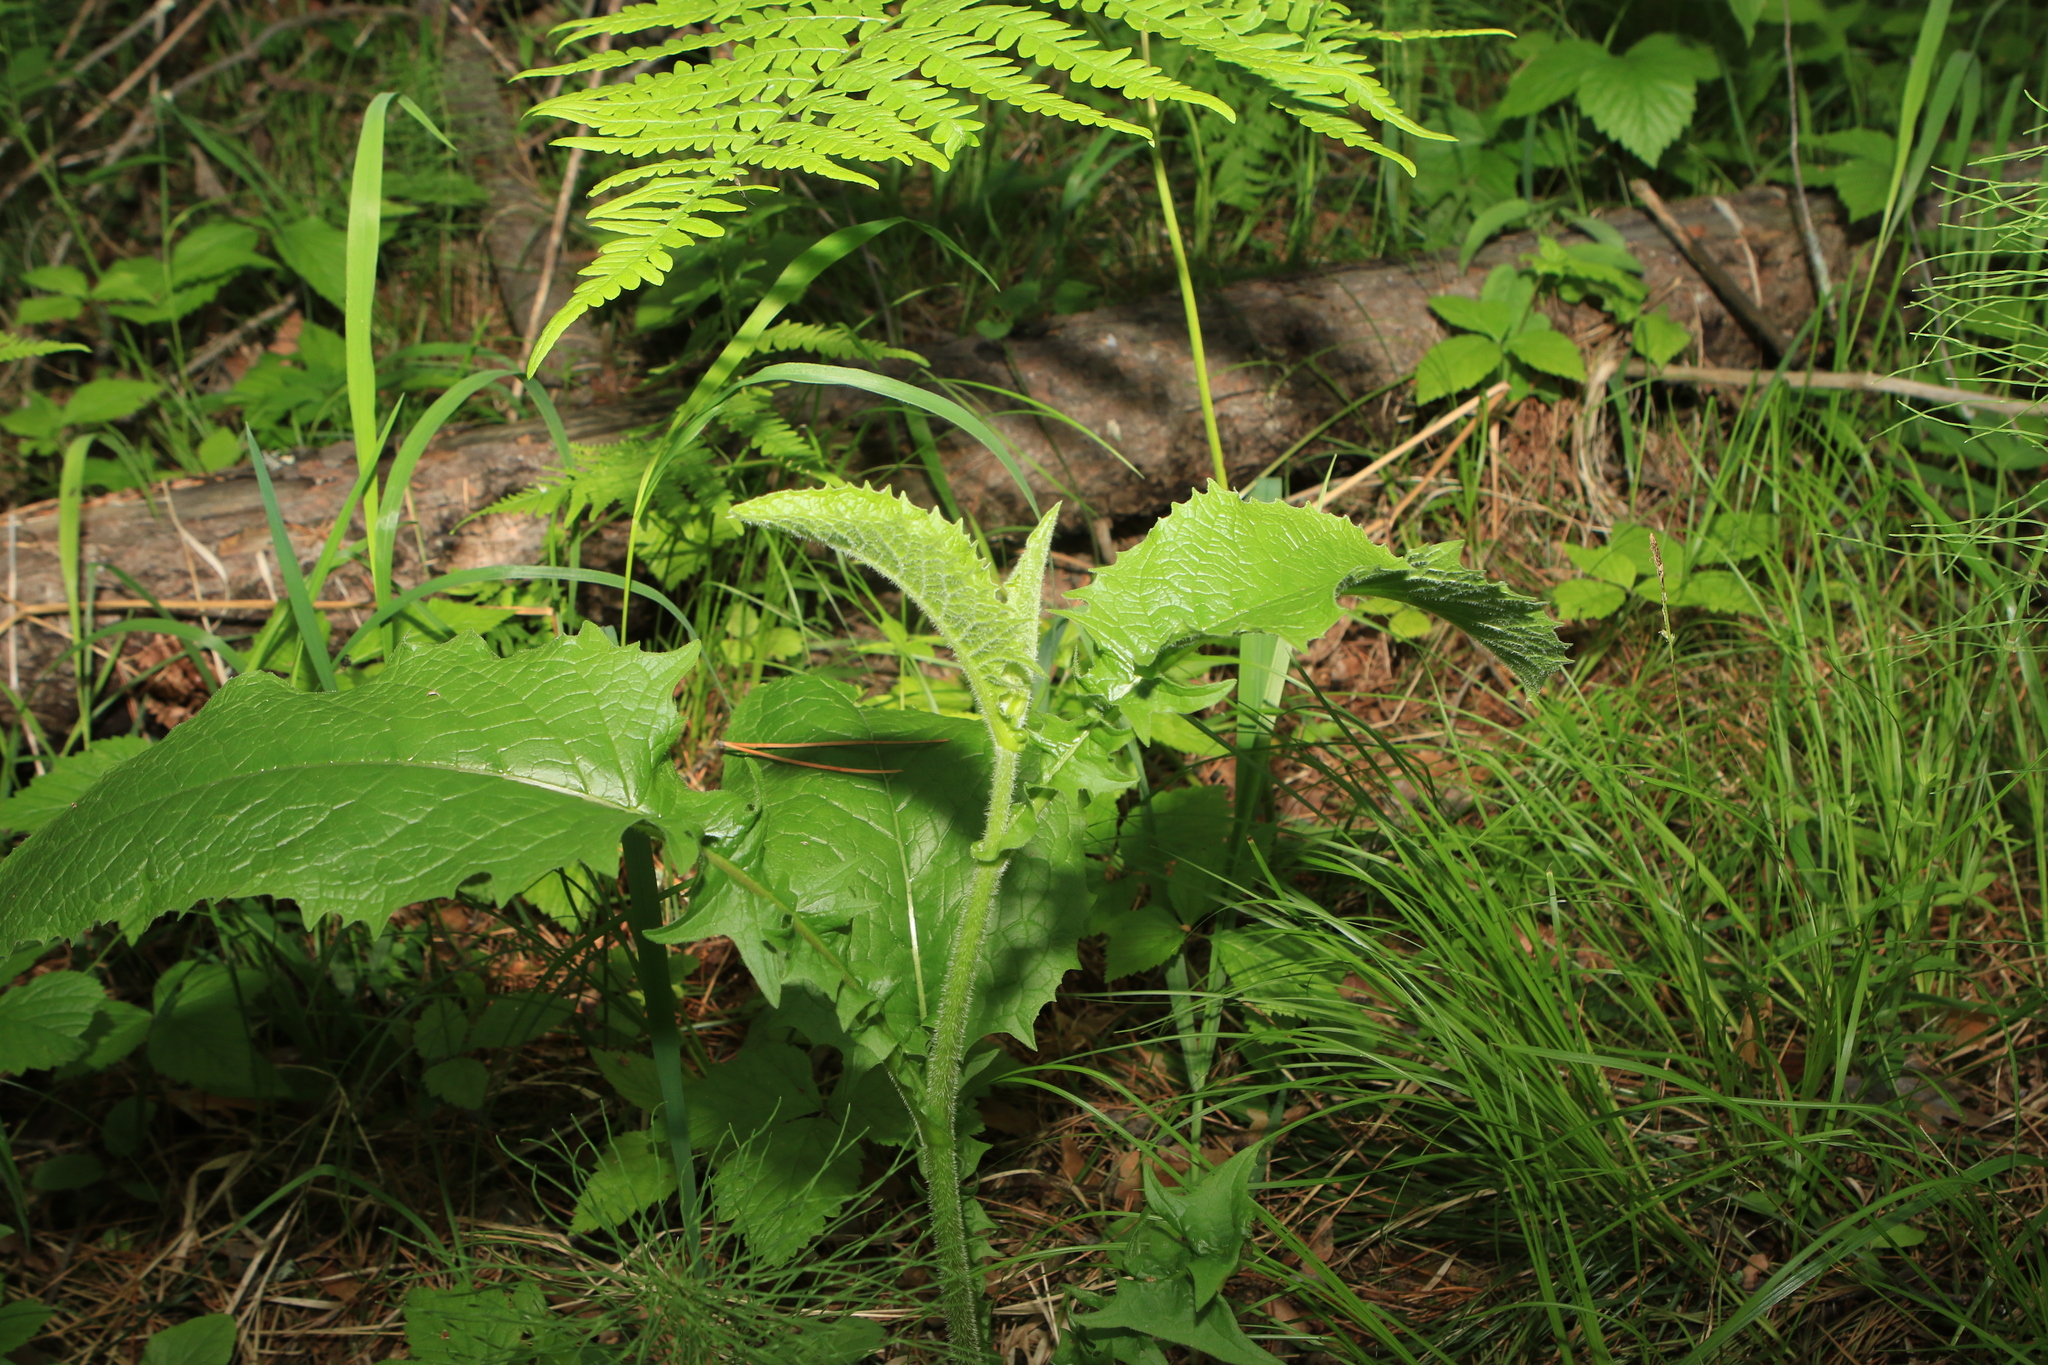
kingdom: Plantae
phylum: Tracheophyta
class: Magnoliopsida
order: Asterales
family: Asteraceae
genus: Crepis
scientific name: Crepis sibirica
